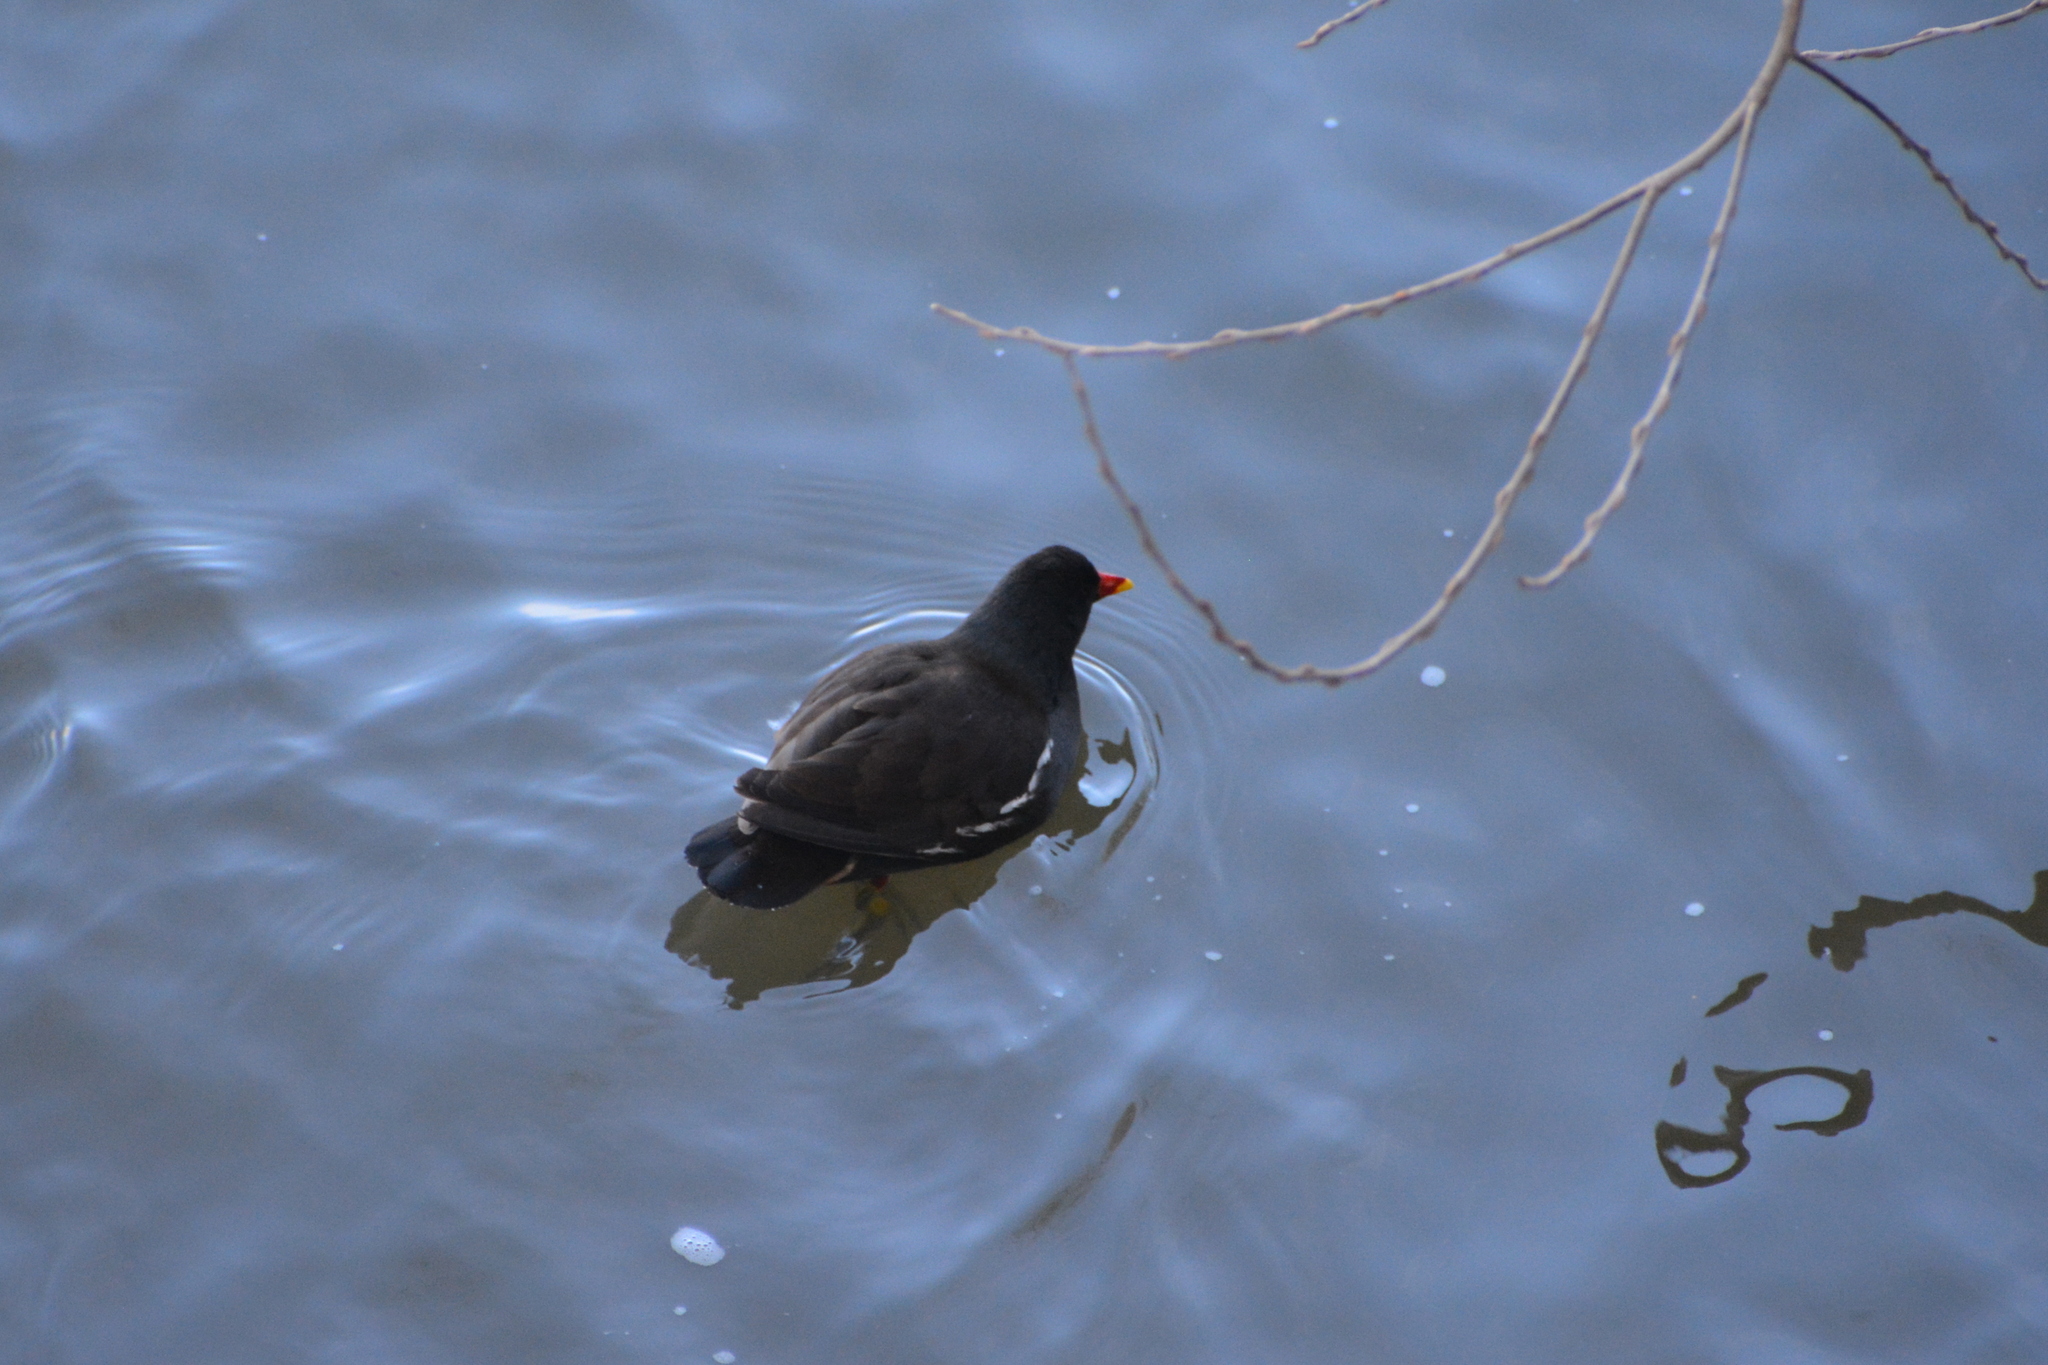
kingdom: Animalia
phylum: Chordata
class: Aves
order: Gruiformes
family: Rallidae
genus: Gallinula
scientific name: Gallinula chloropus
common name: Common moorhen
